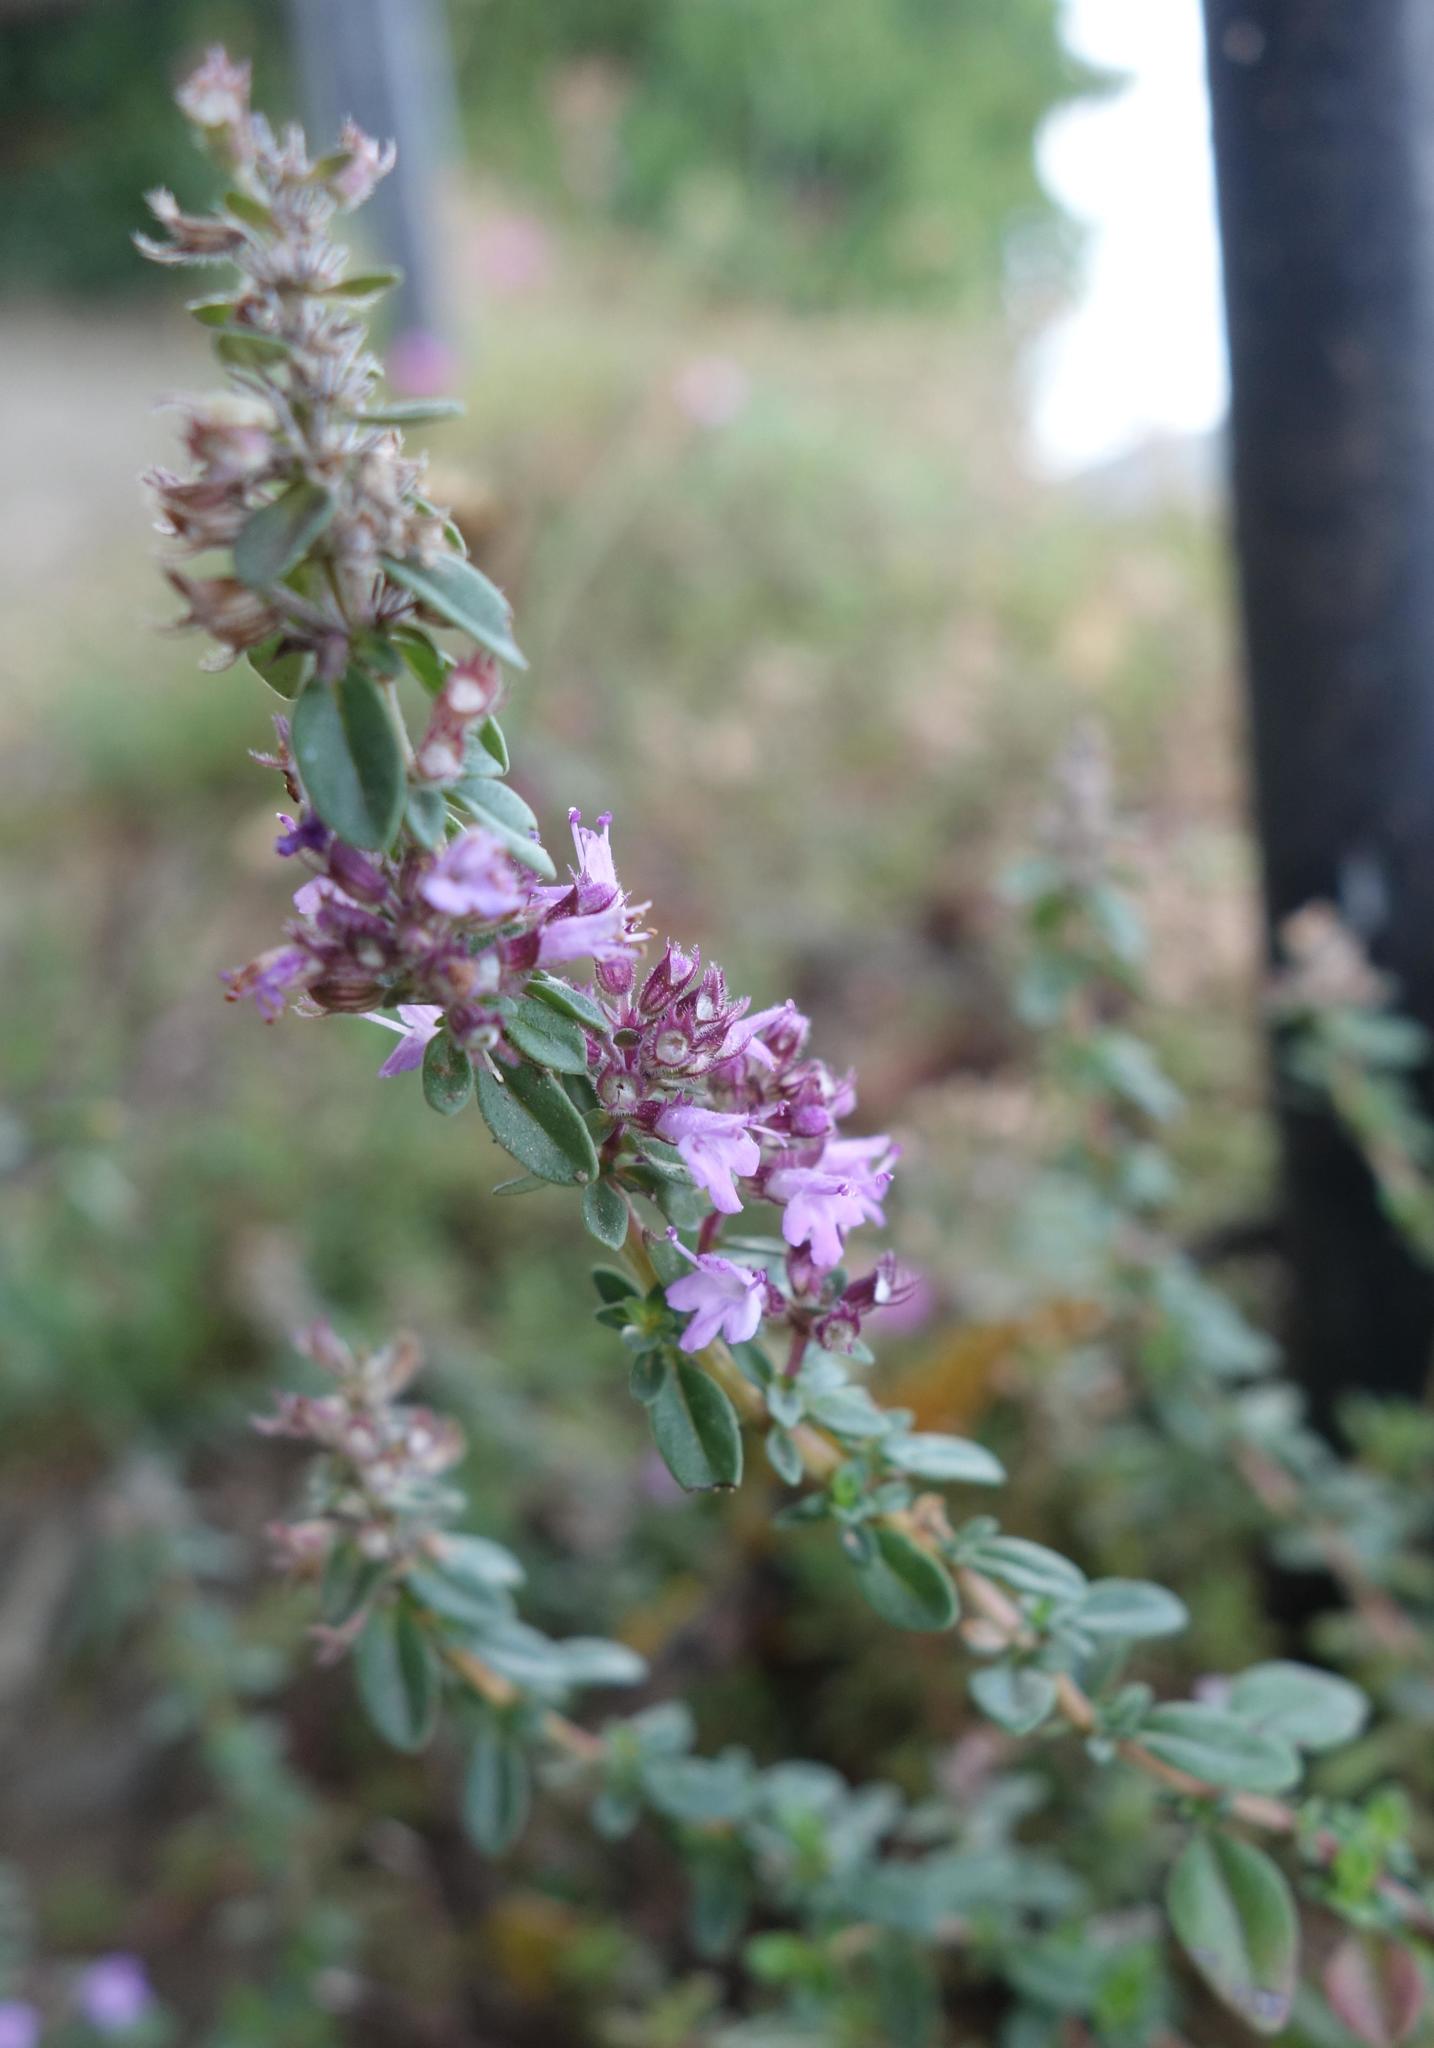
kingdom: Plantae
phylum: Tracheophyta
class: Magnoliopsida
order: Lamiales
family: Lamiaceae
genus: Thymus
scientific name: Thymus pulegioides
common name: Large thyme
